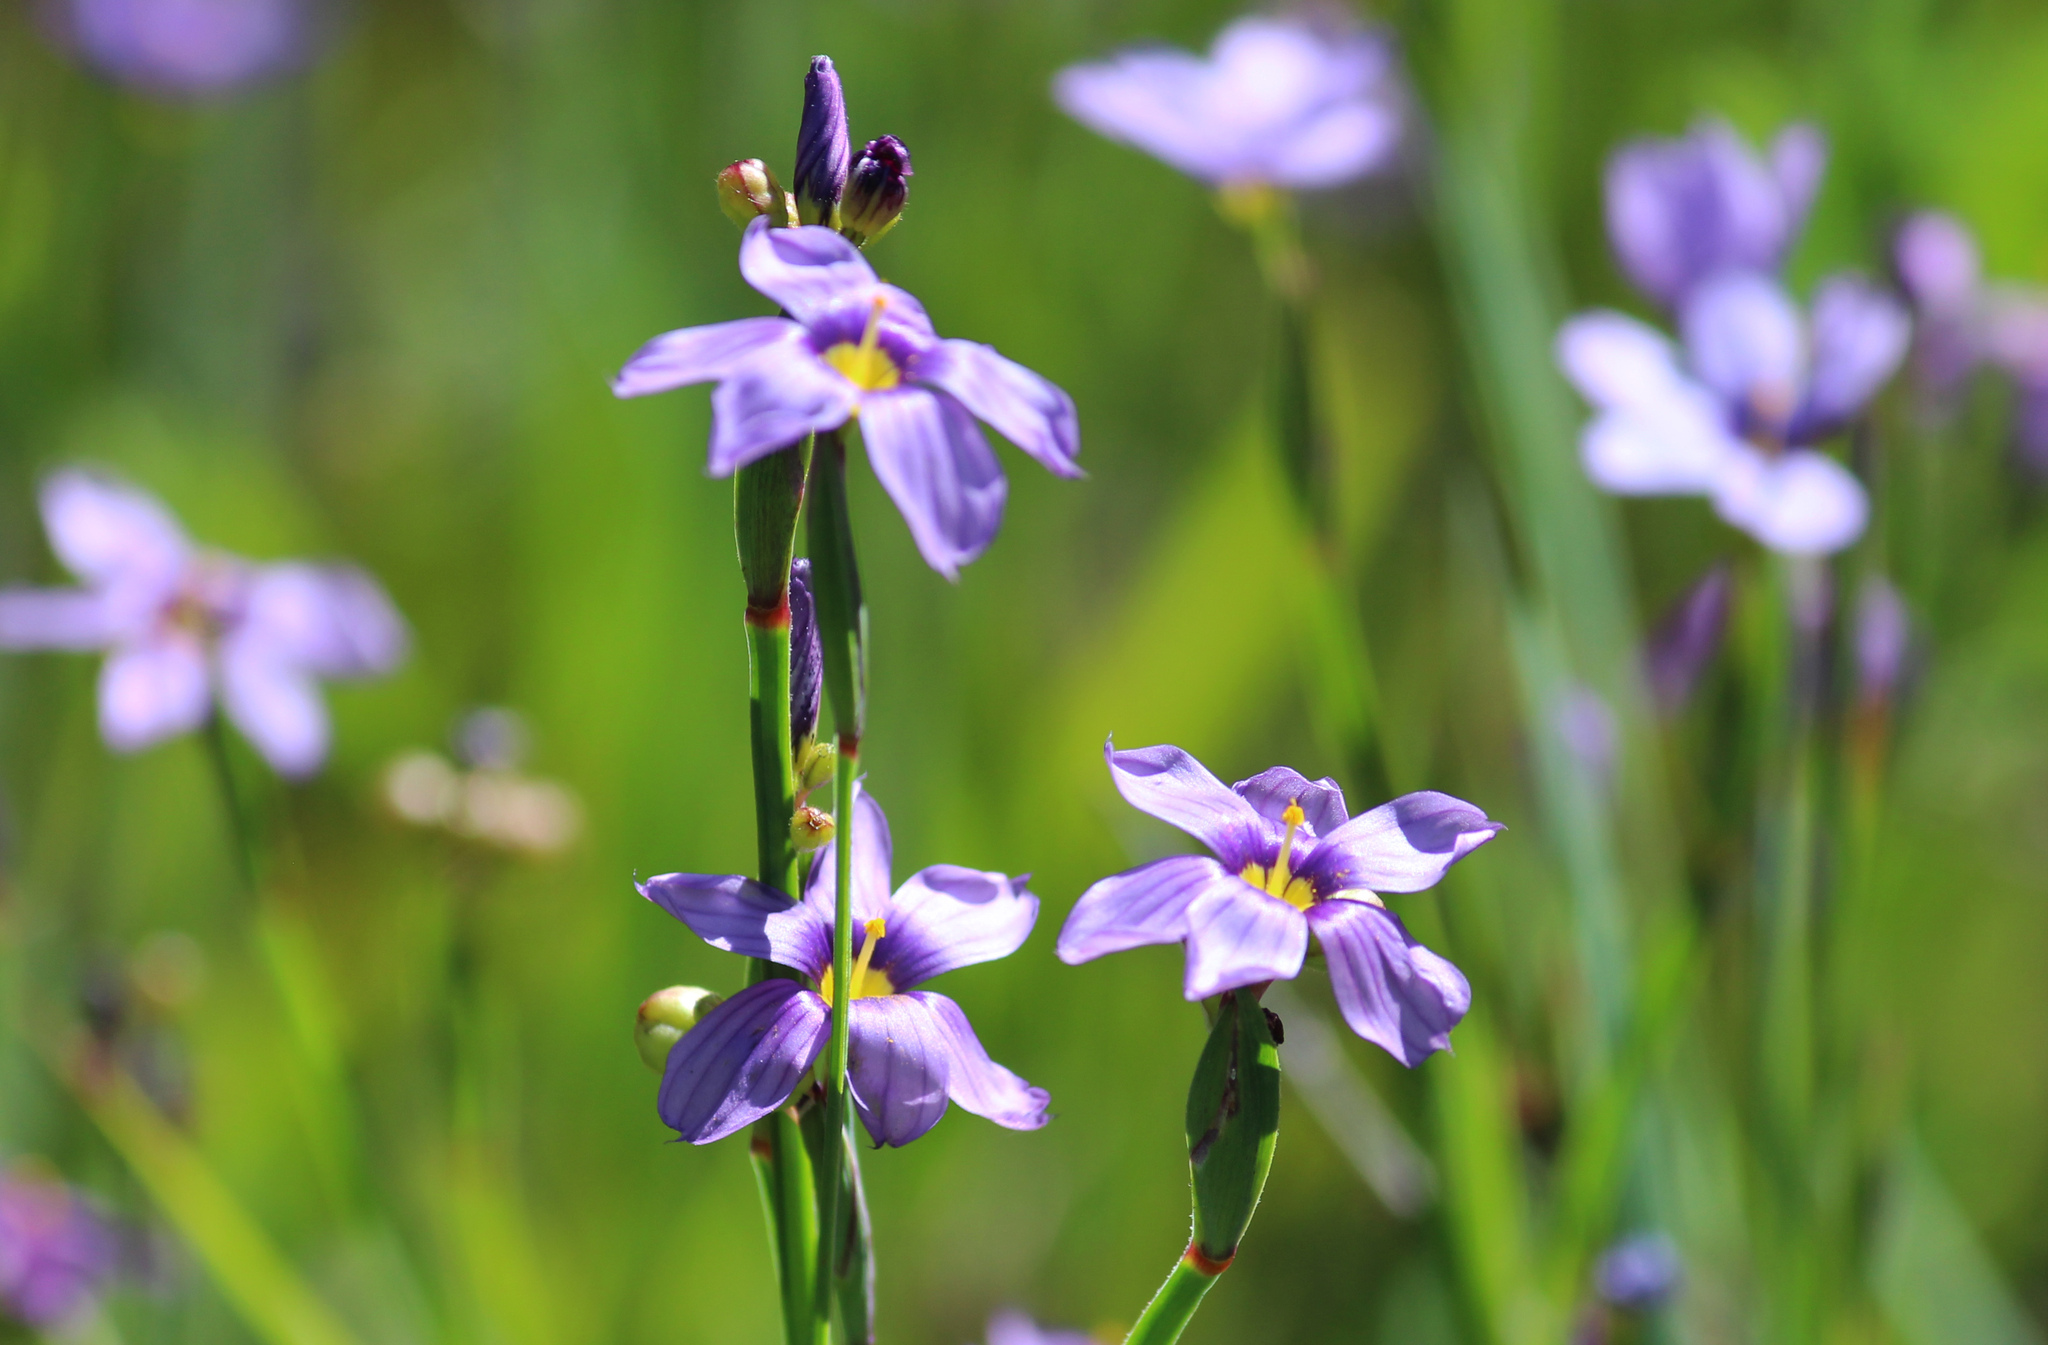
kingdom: Plantae
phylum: Tracheophyta
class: Liliopsida
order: Asparagales
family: Iridaceae
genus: Sisyrinchium
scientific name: Sisyrinchium bellum
